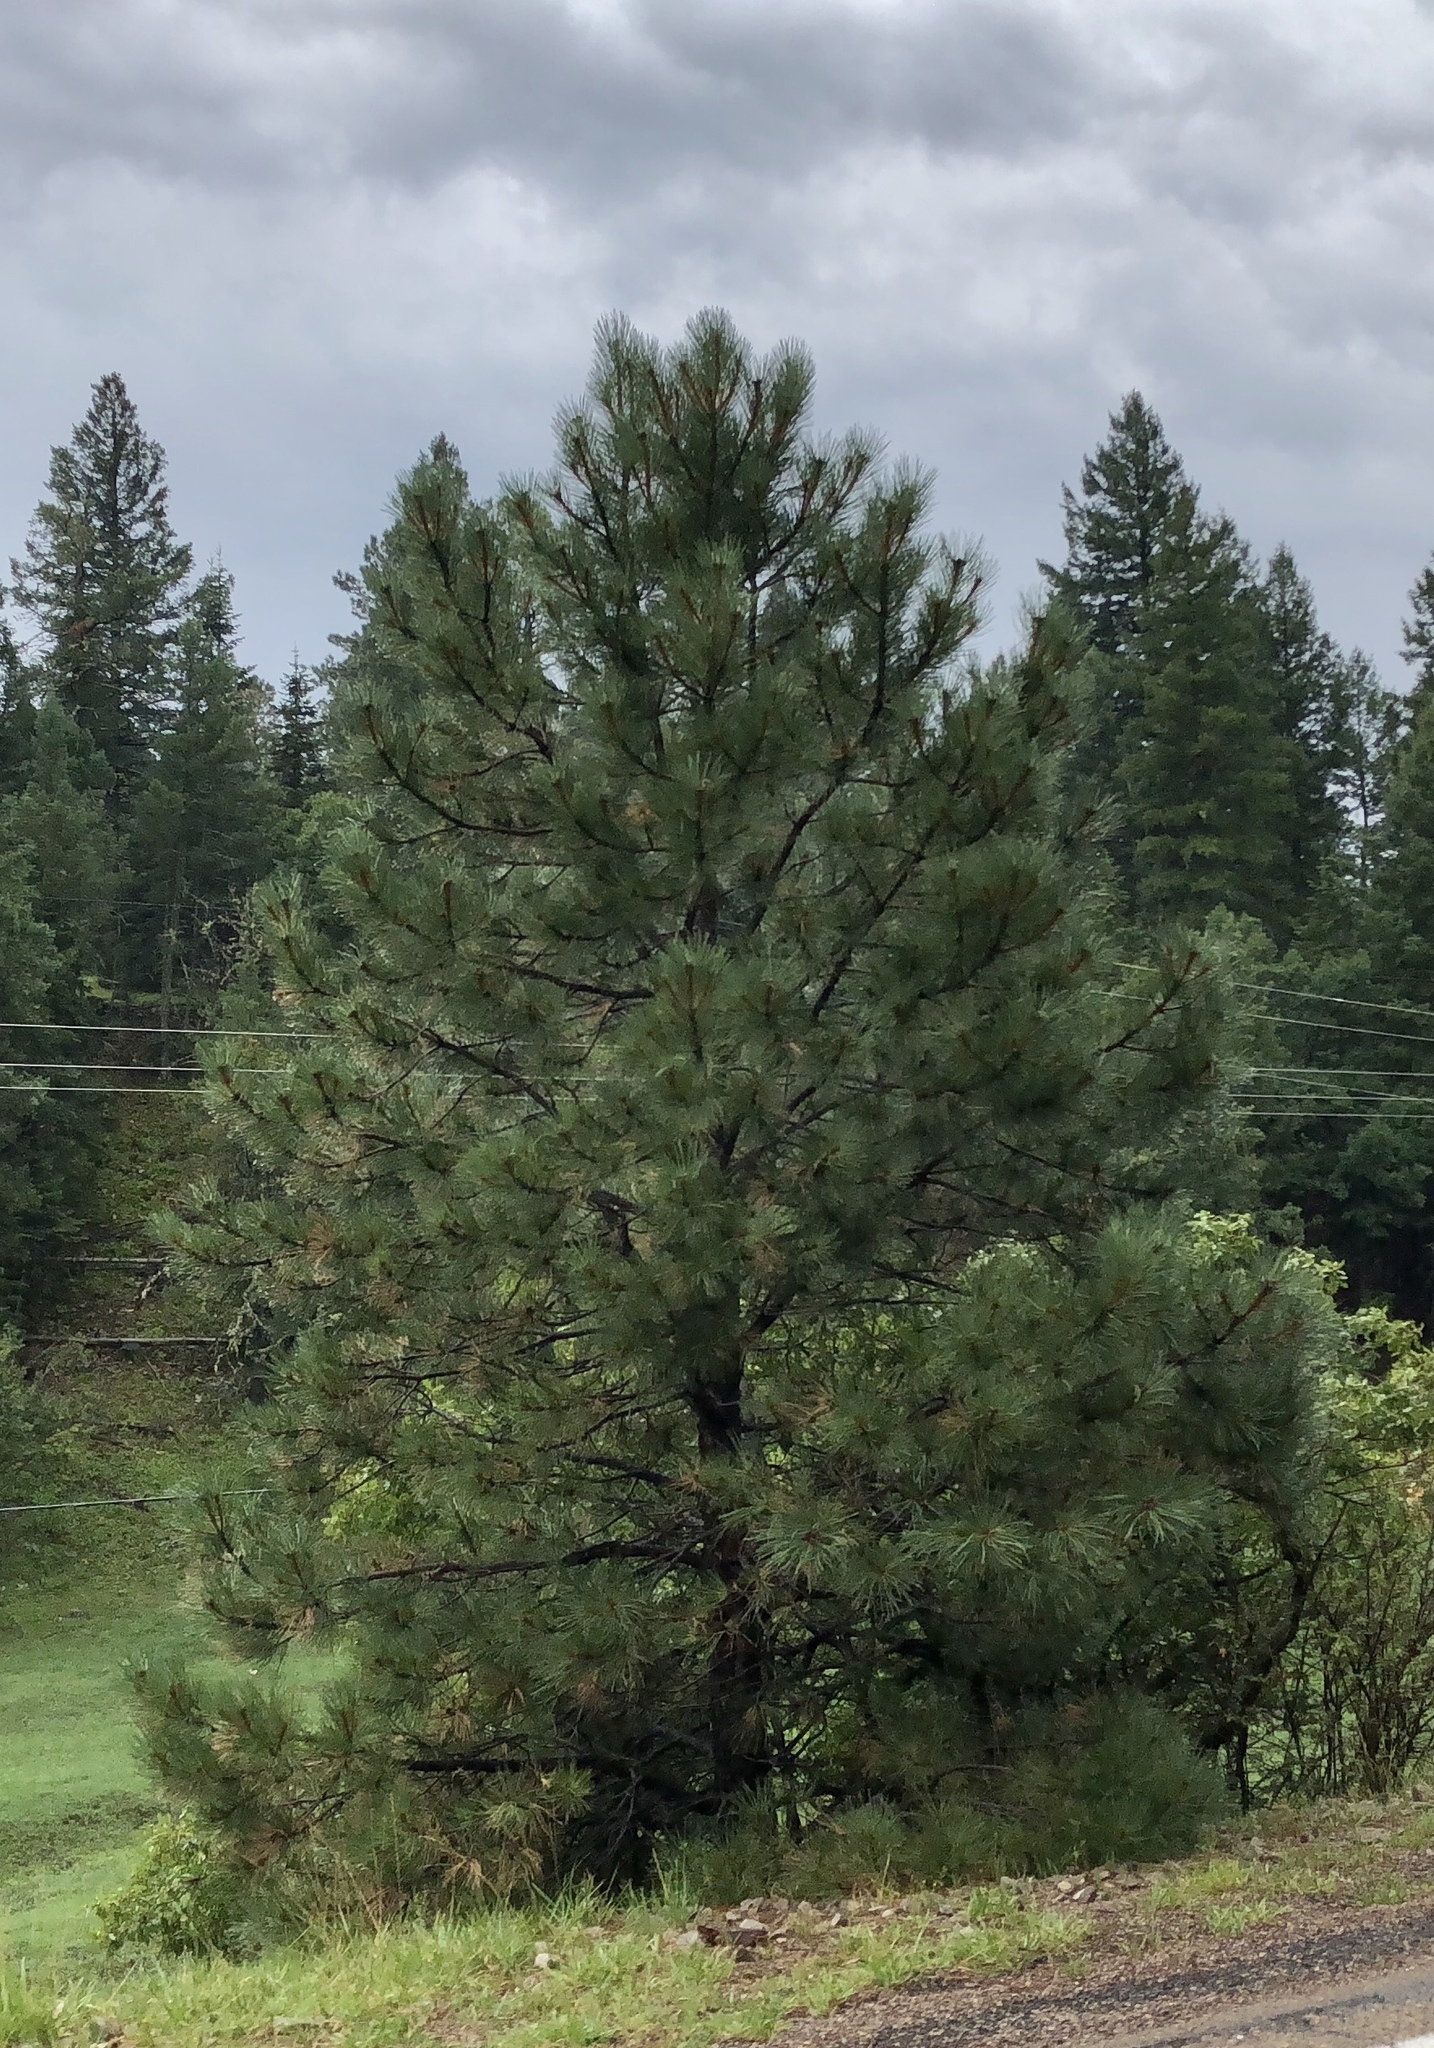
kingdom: Plantae
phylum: Tracheophyta
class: Pinopsida
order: Pinales
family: Pinaceae
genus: Pinus
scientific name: Pinus ponderosa
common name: Western yellow-pine
